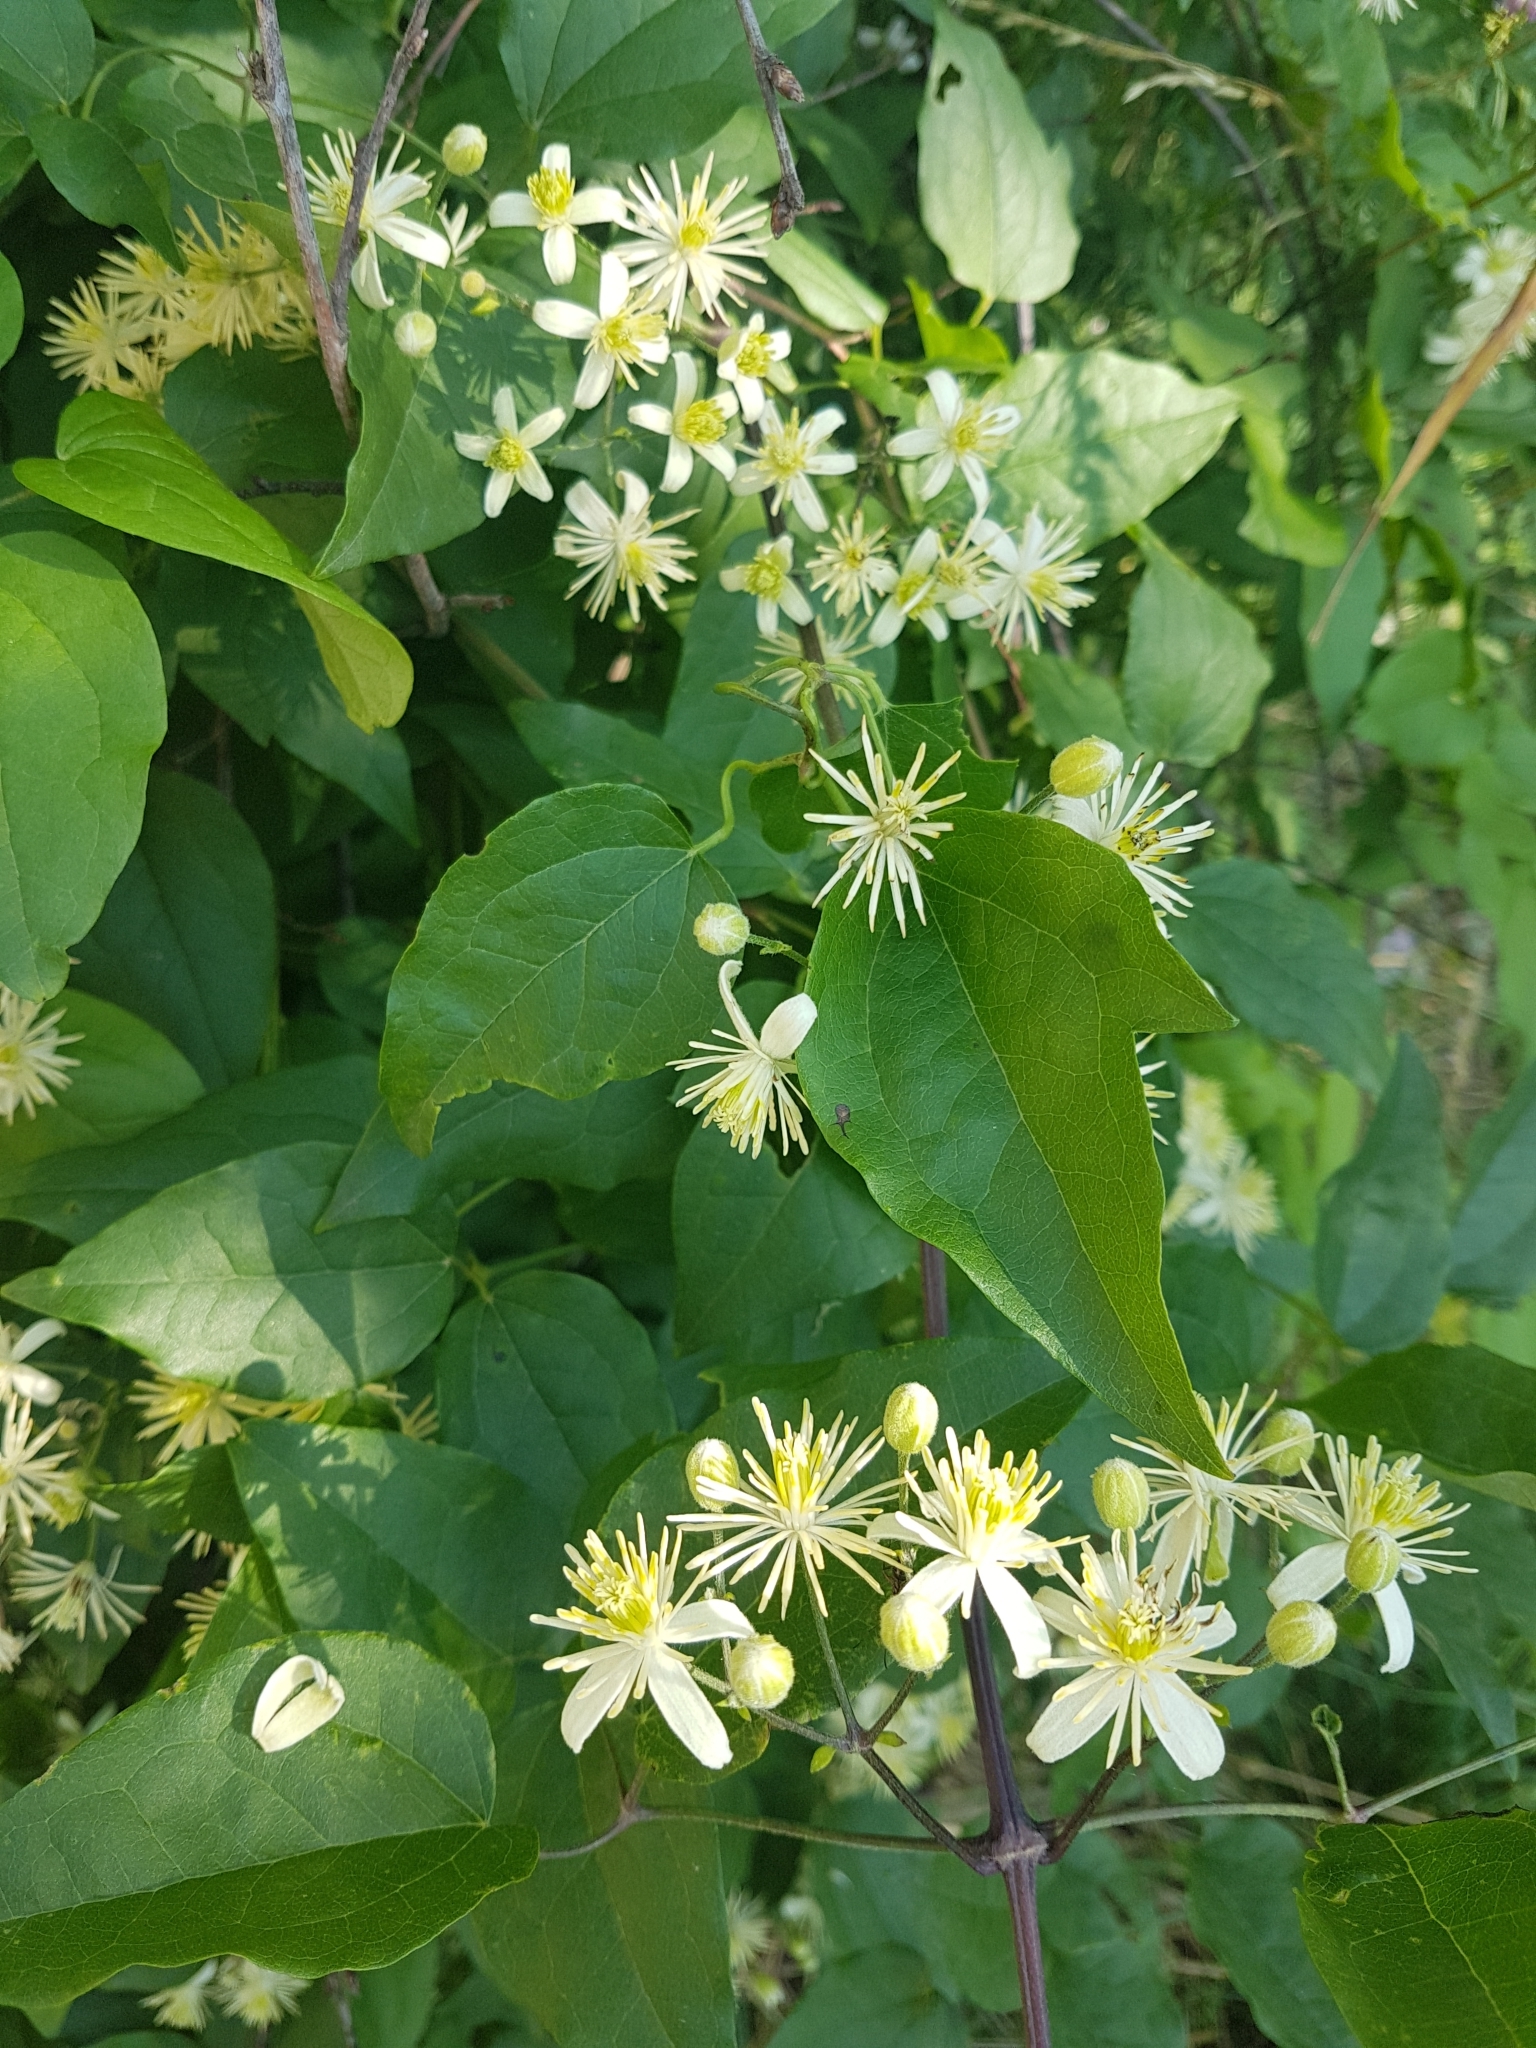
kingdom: Plantae
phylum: Tracheophyta
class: Magnoliopsida
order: Ranunculales
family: Ranunculaceae
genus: Clematis
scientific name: Clematis vitalba
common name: Evergreen clematis
